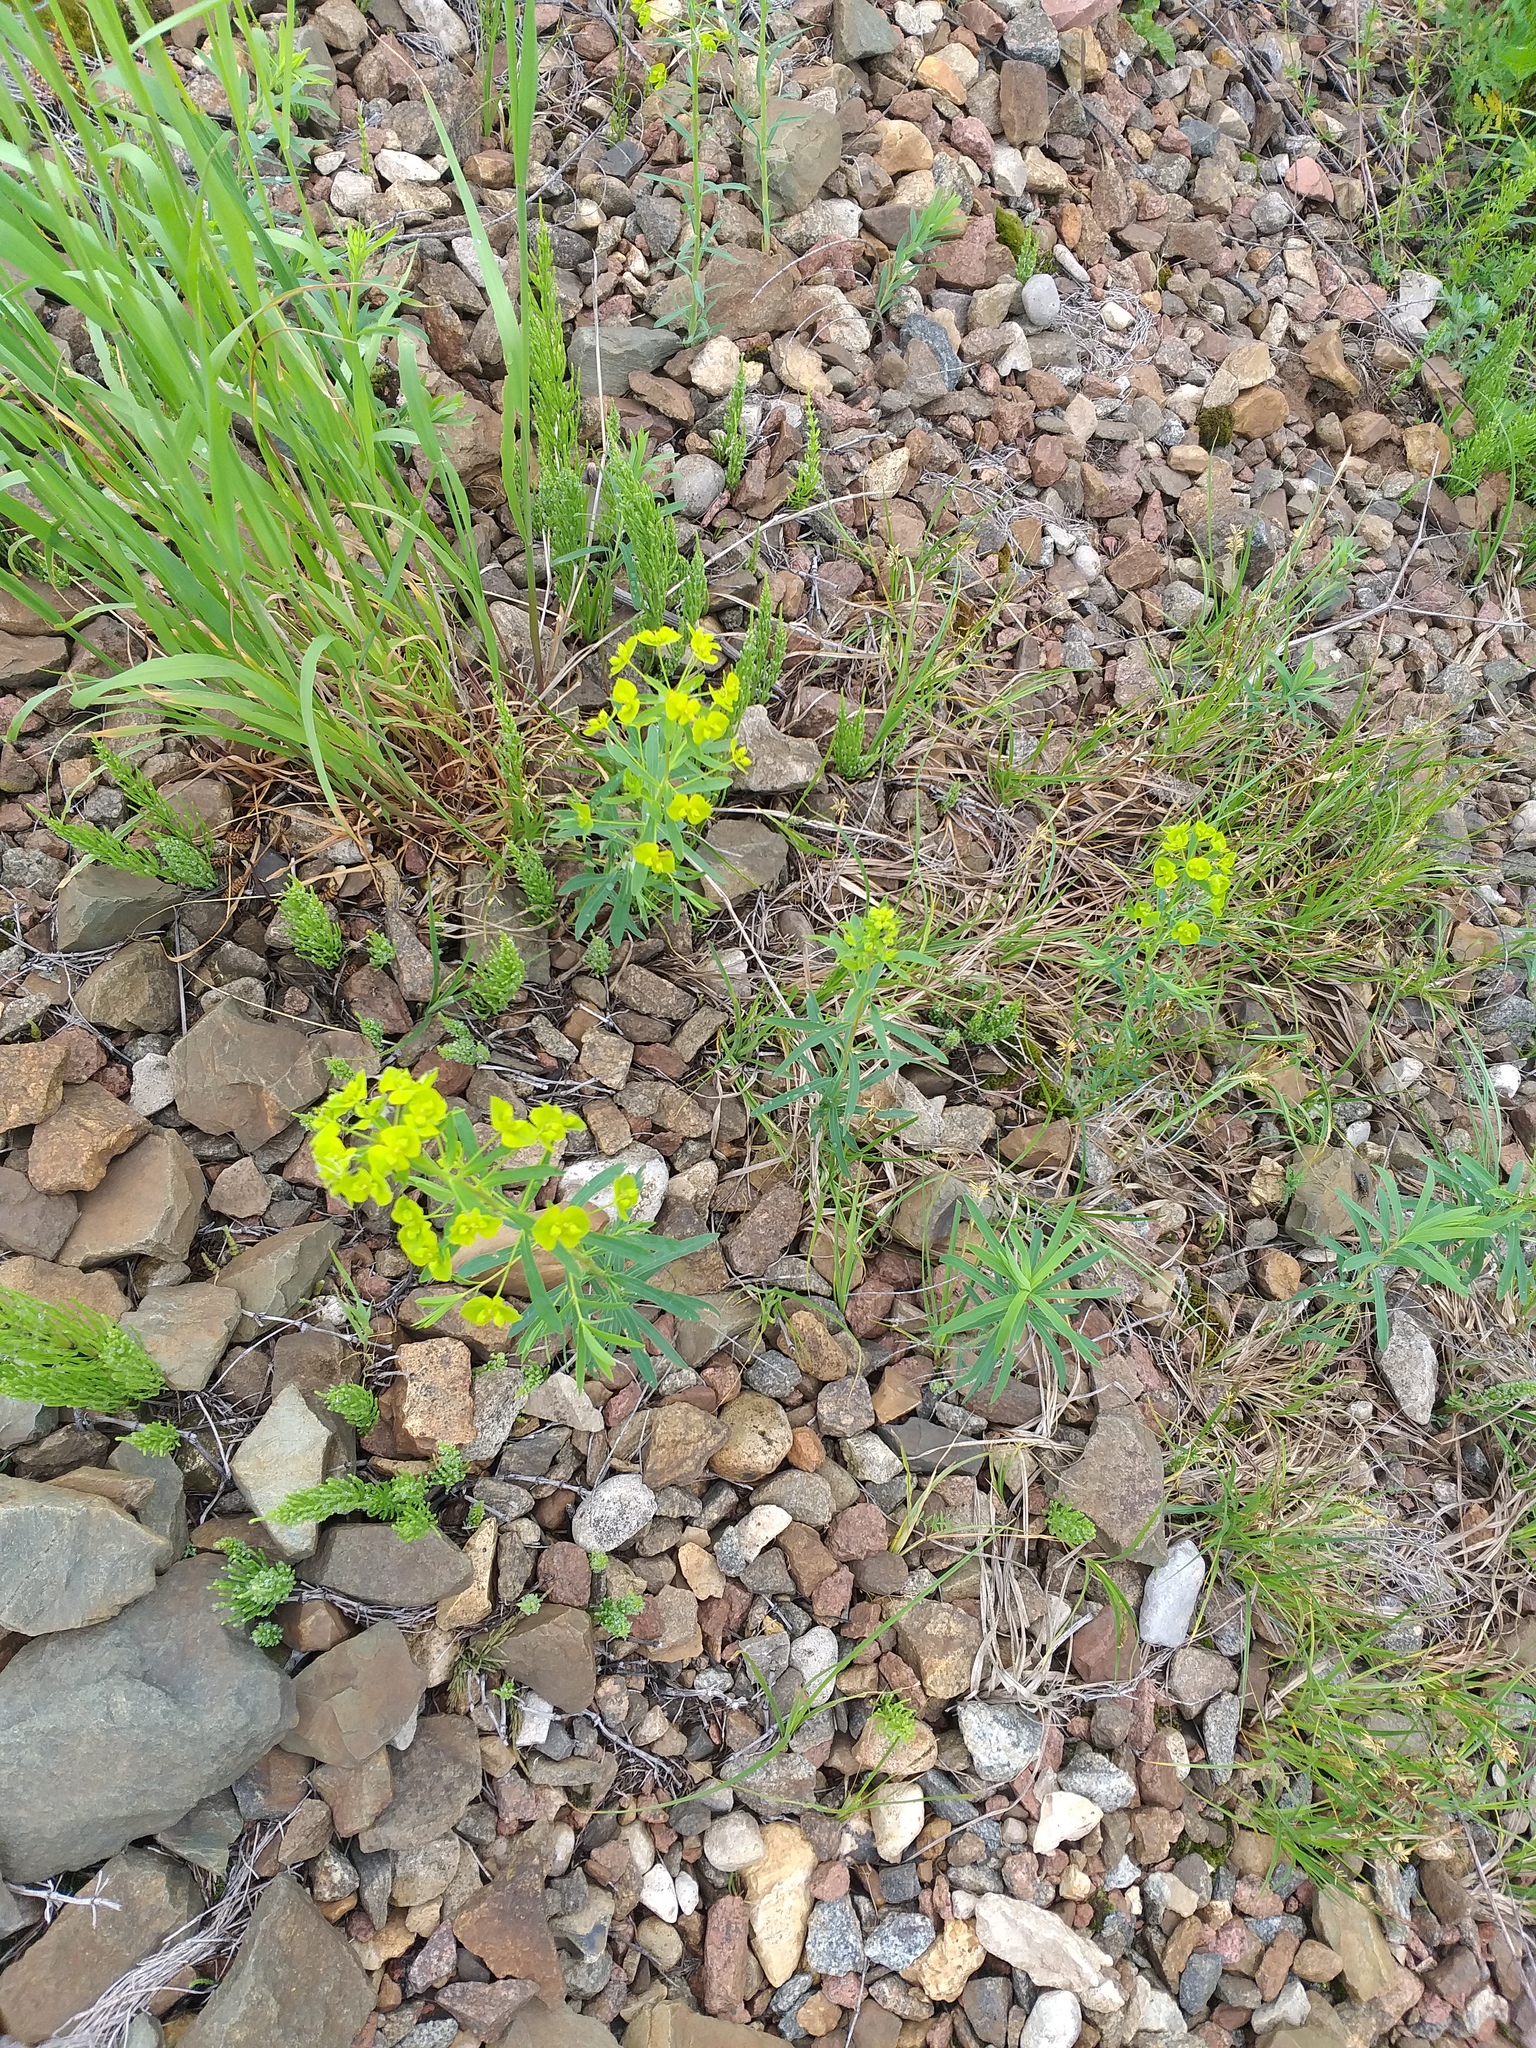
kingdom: Plantae
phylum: Tracheophyta
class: Magnoliopsida
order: Malpighiales
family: Euphorbiaceae
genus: Euphorbia
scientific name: Euphorbia virgata
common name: Leafy spurge
